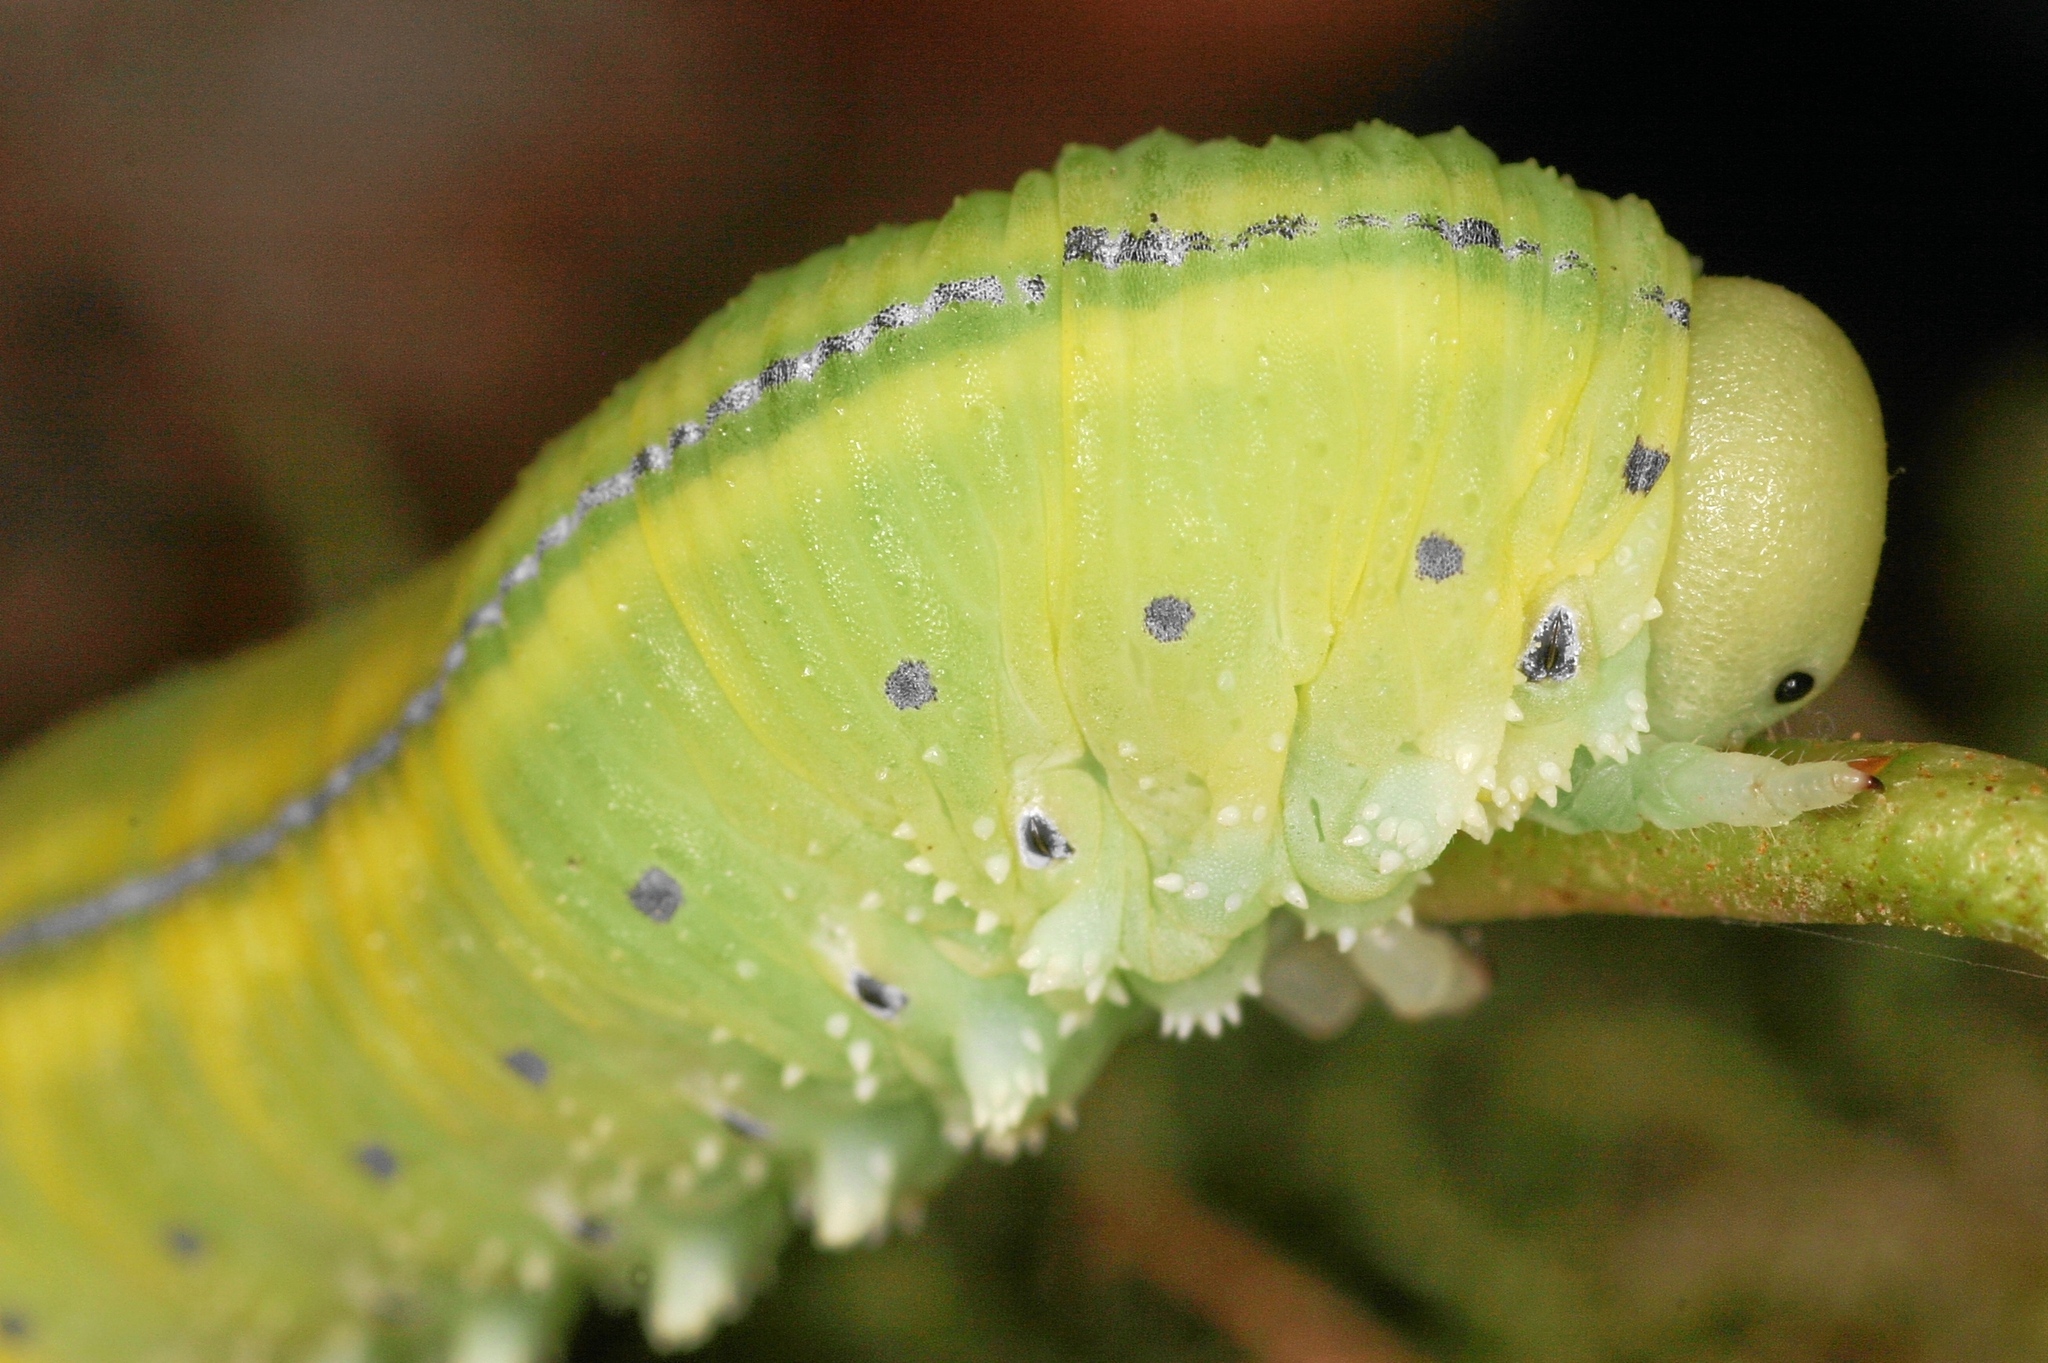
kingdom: Animalia
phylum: Arthropoda
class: Insecta
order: Hymenoptera
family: Cimbicidae
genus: Cimbex
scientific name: Cimbex connatus
